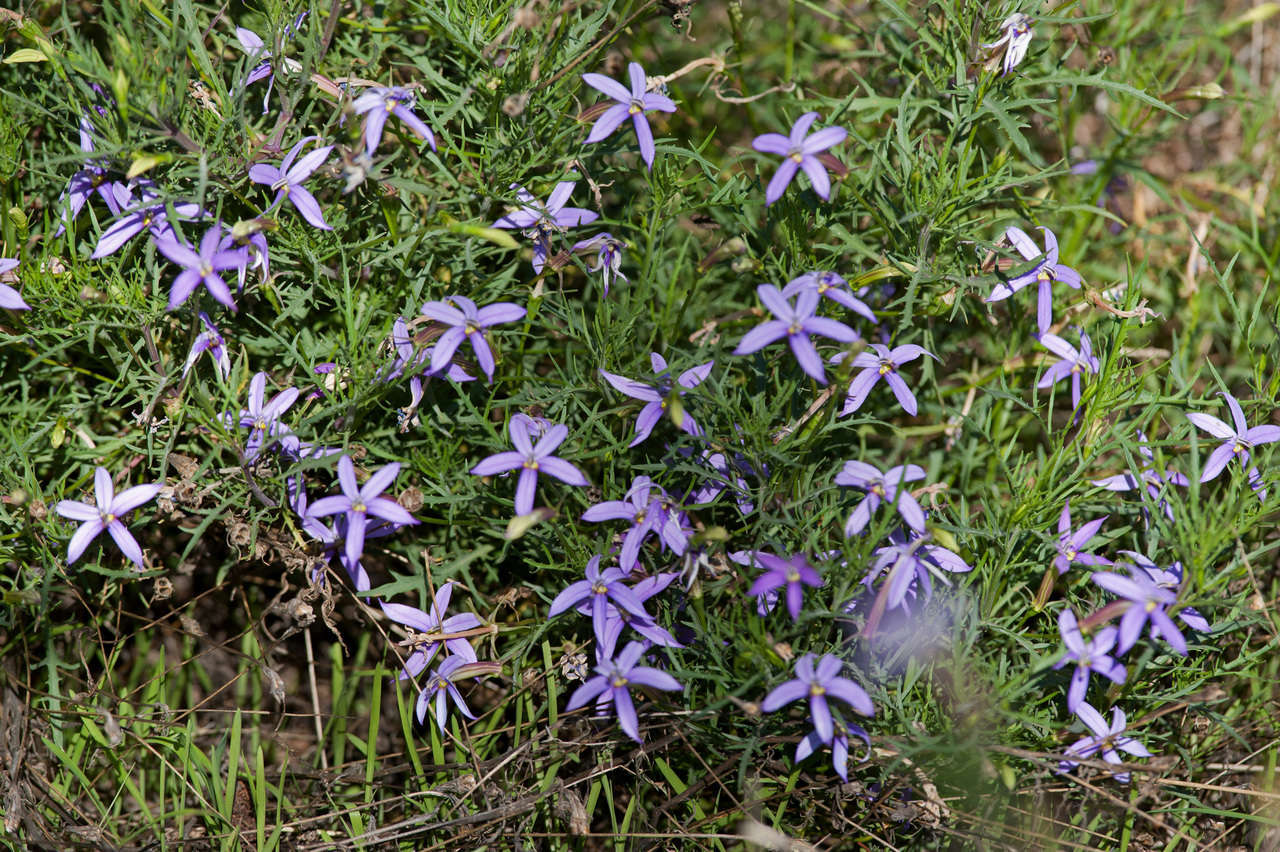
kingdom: Plantae
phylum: Tracheophyta
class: Magnoliopsida
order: Asterales
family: Campanulaceae
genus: Lithotoma
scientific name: Lithotoma axillaris
